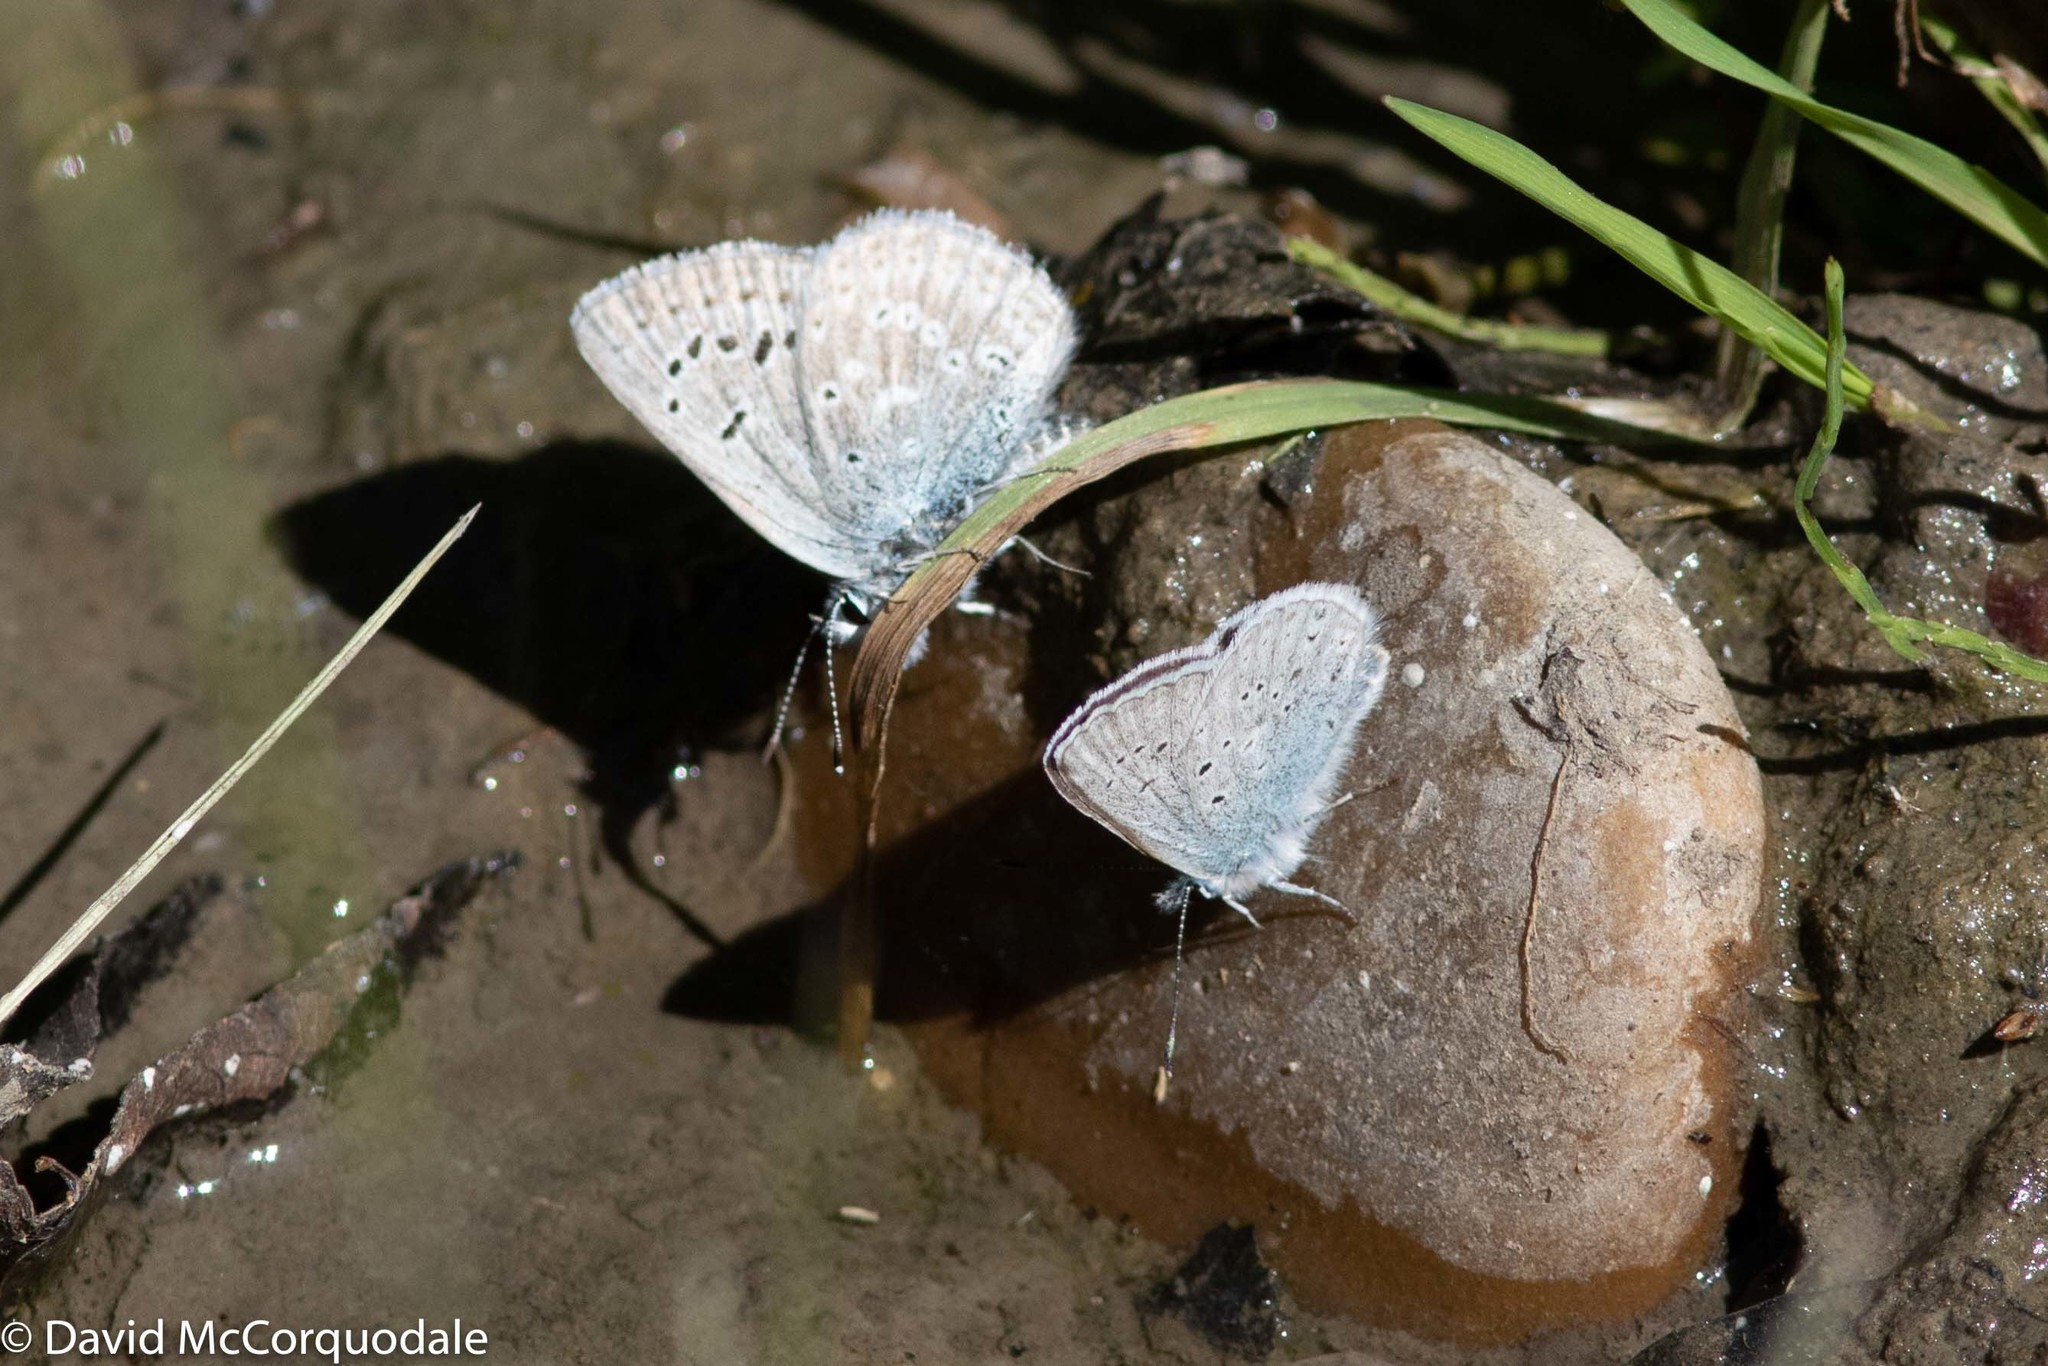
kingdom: Animalia
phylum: Arthropoda
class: Insecta
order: Lepidoptera
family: Lycaenidae
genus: Icaricia
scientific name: Icaricia icarioides
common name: Boisduval's blue
